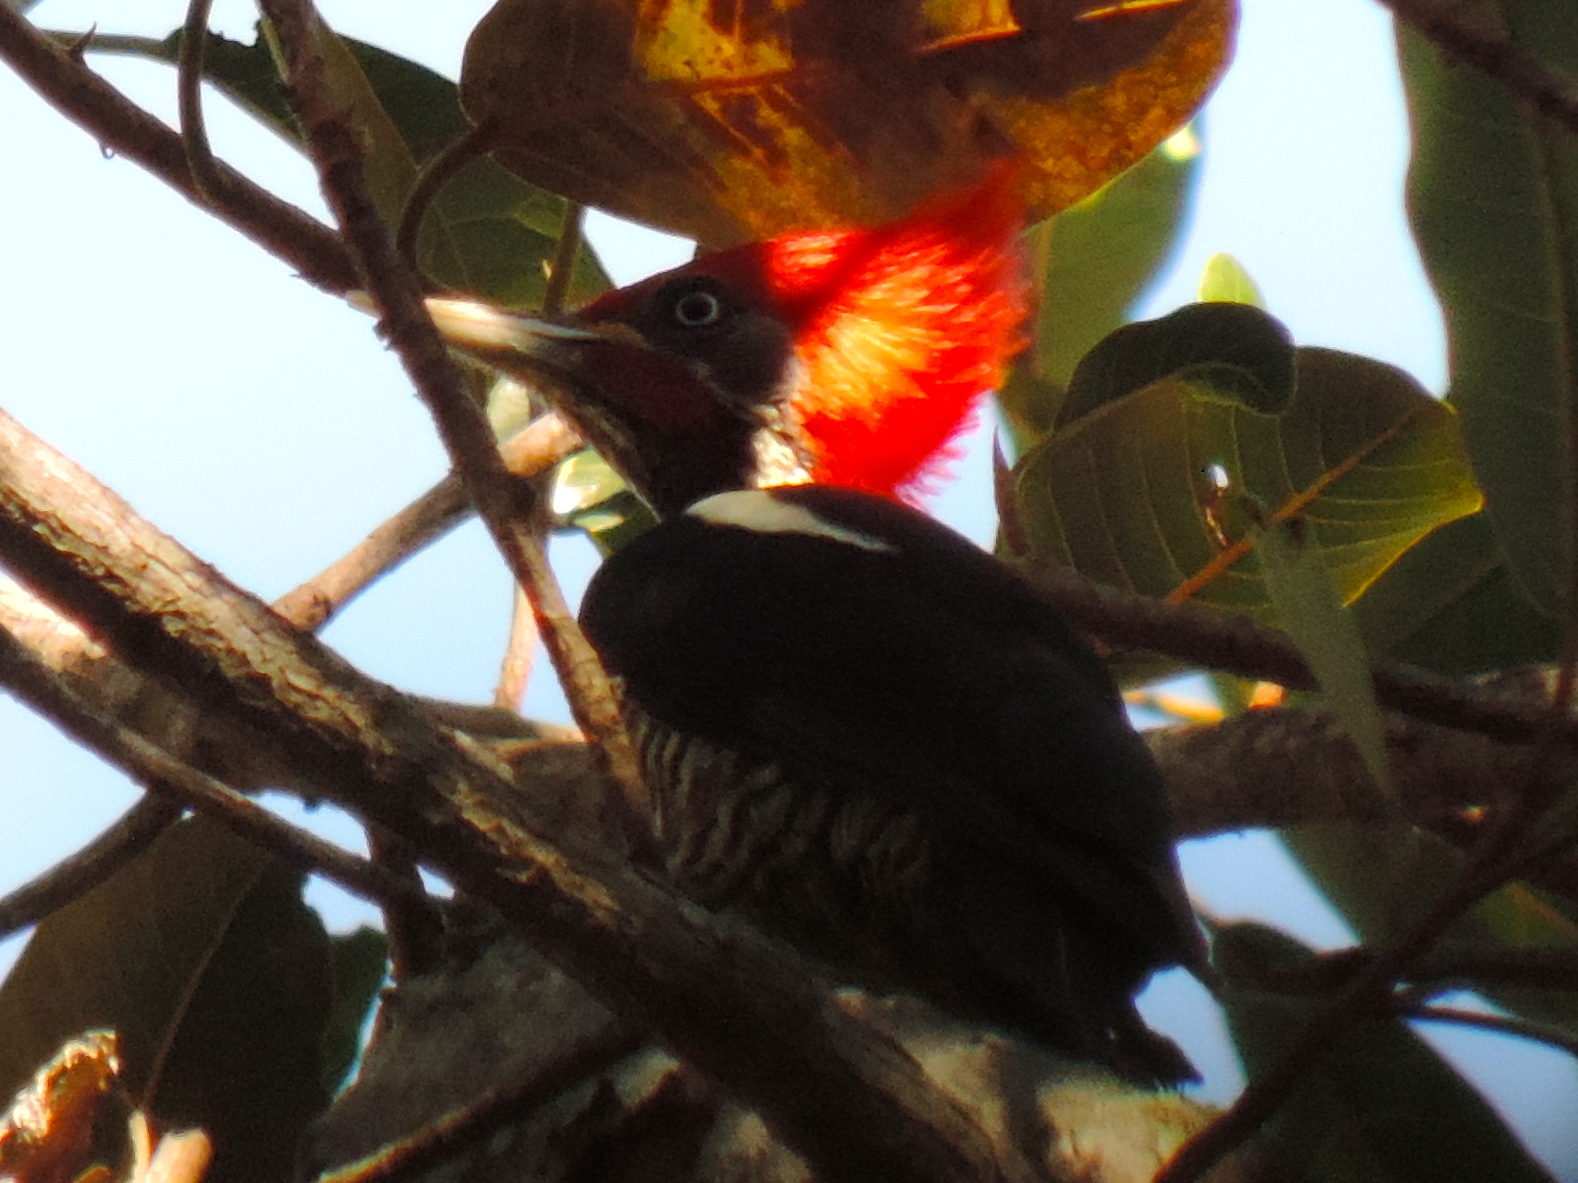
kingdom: Animalia
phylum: Chordata
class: Aves
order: Piciformes
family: Picidae
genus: Dryocopus
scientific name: Dryocopus lineatus
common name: Lineated woodpecker
